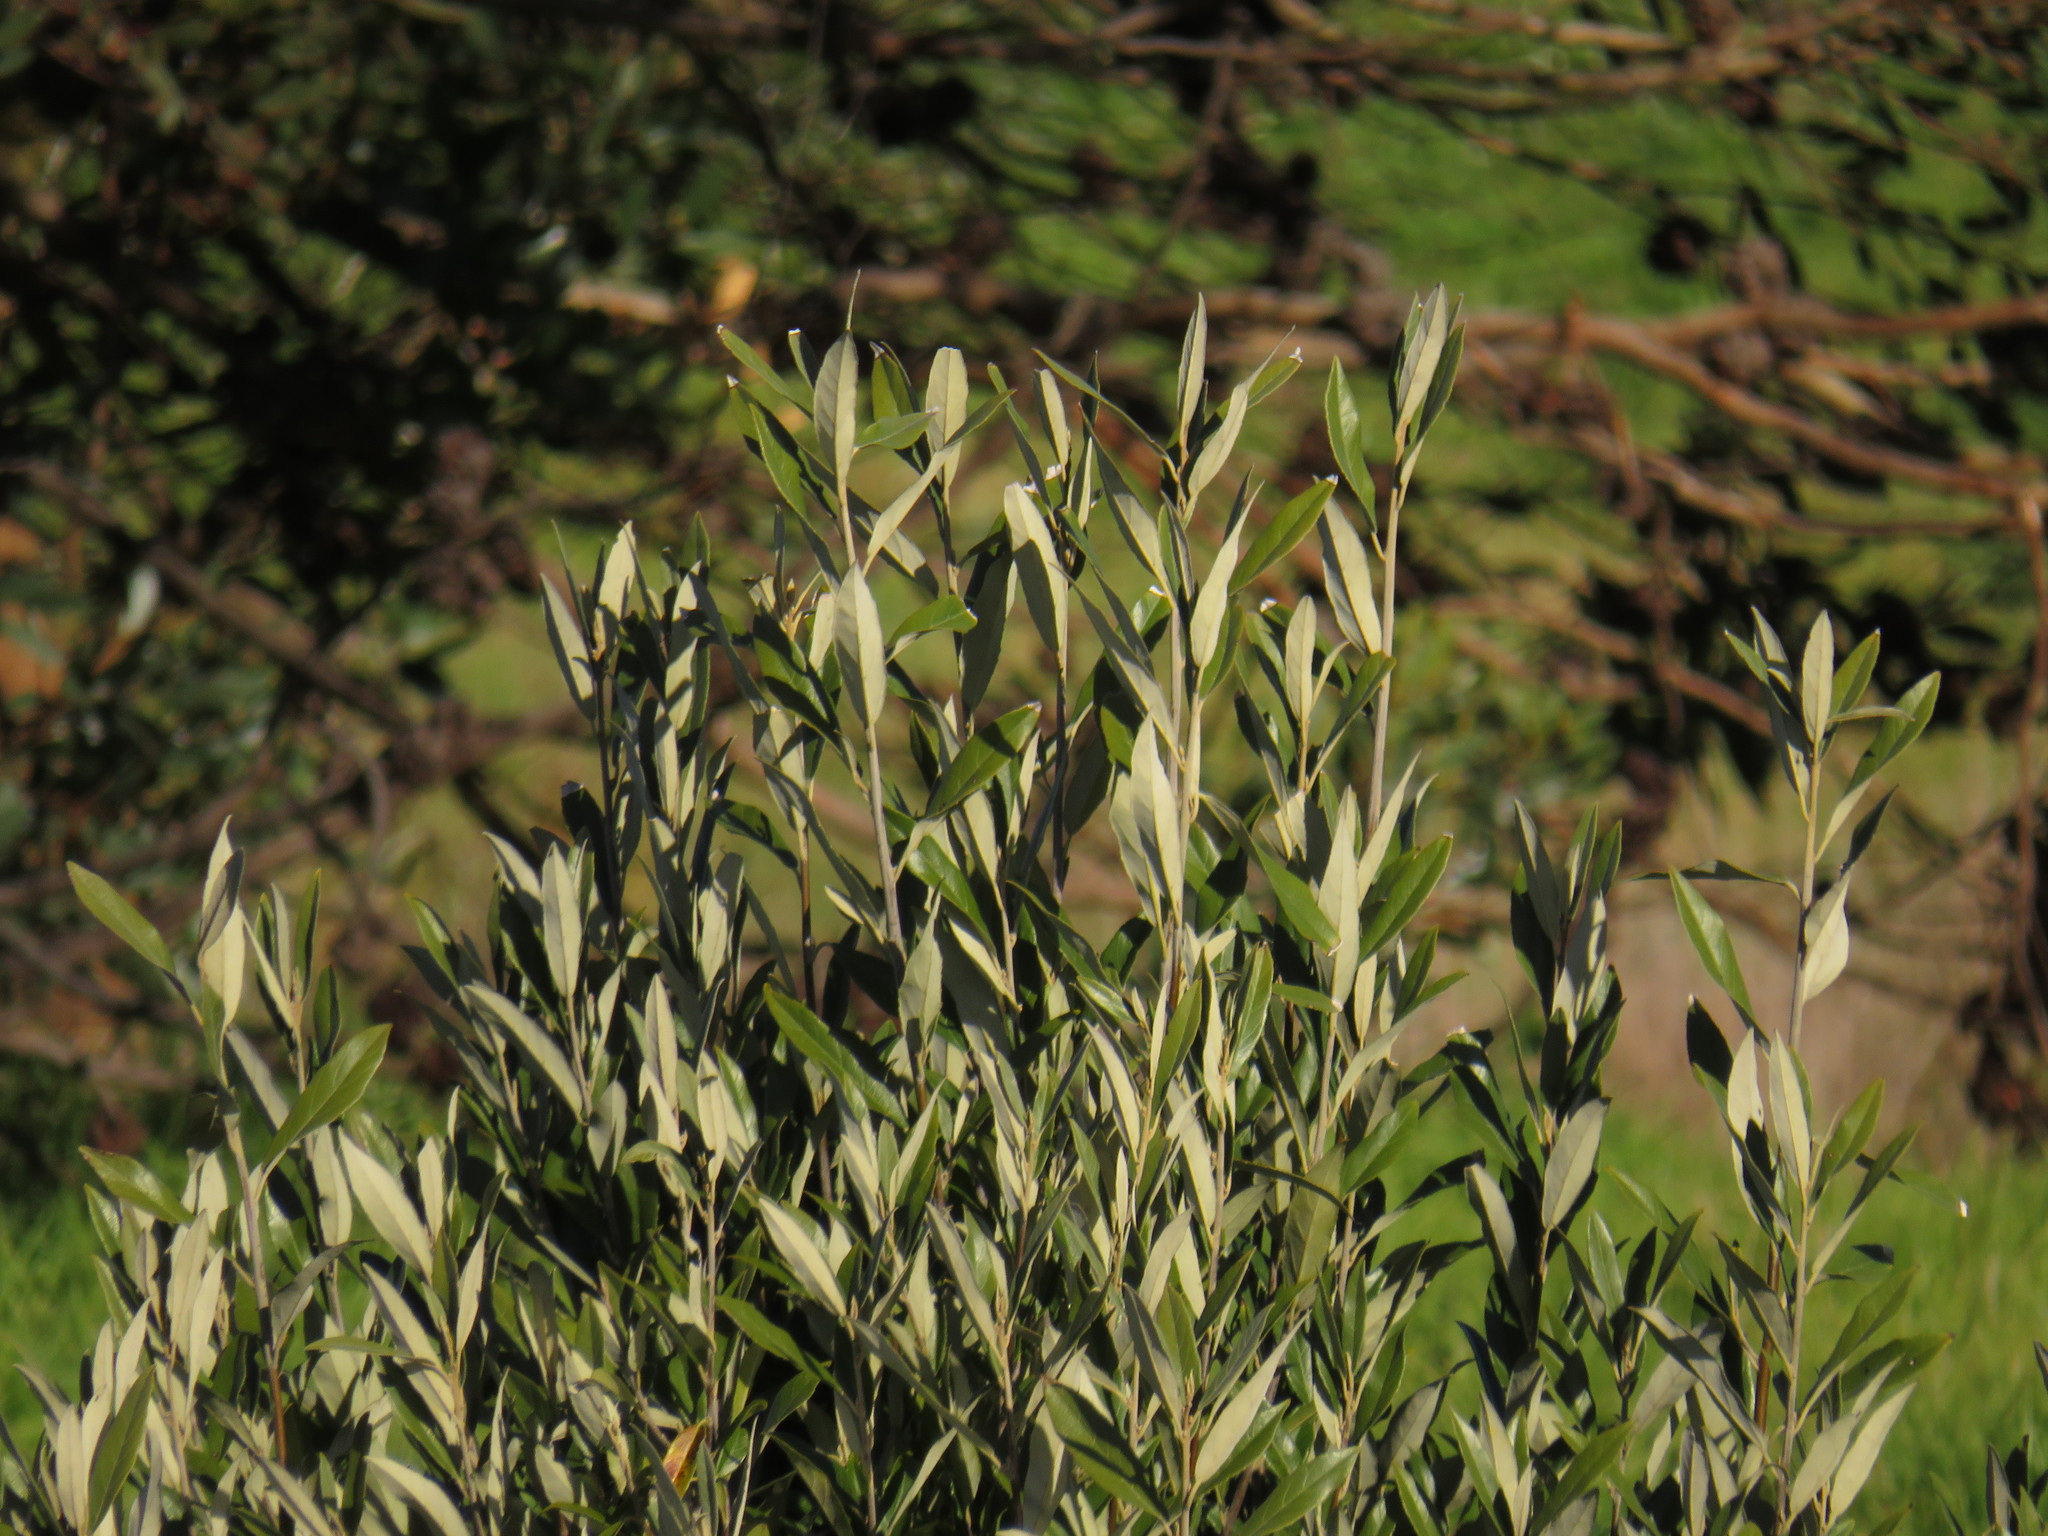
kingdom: Plantae
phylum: Tracheophyta
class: Magnoliopsida
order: Malpighiales
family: Achariaceae
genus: Kiggelaria
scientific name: Kiggelaria africana
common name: Wild peach
